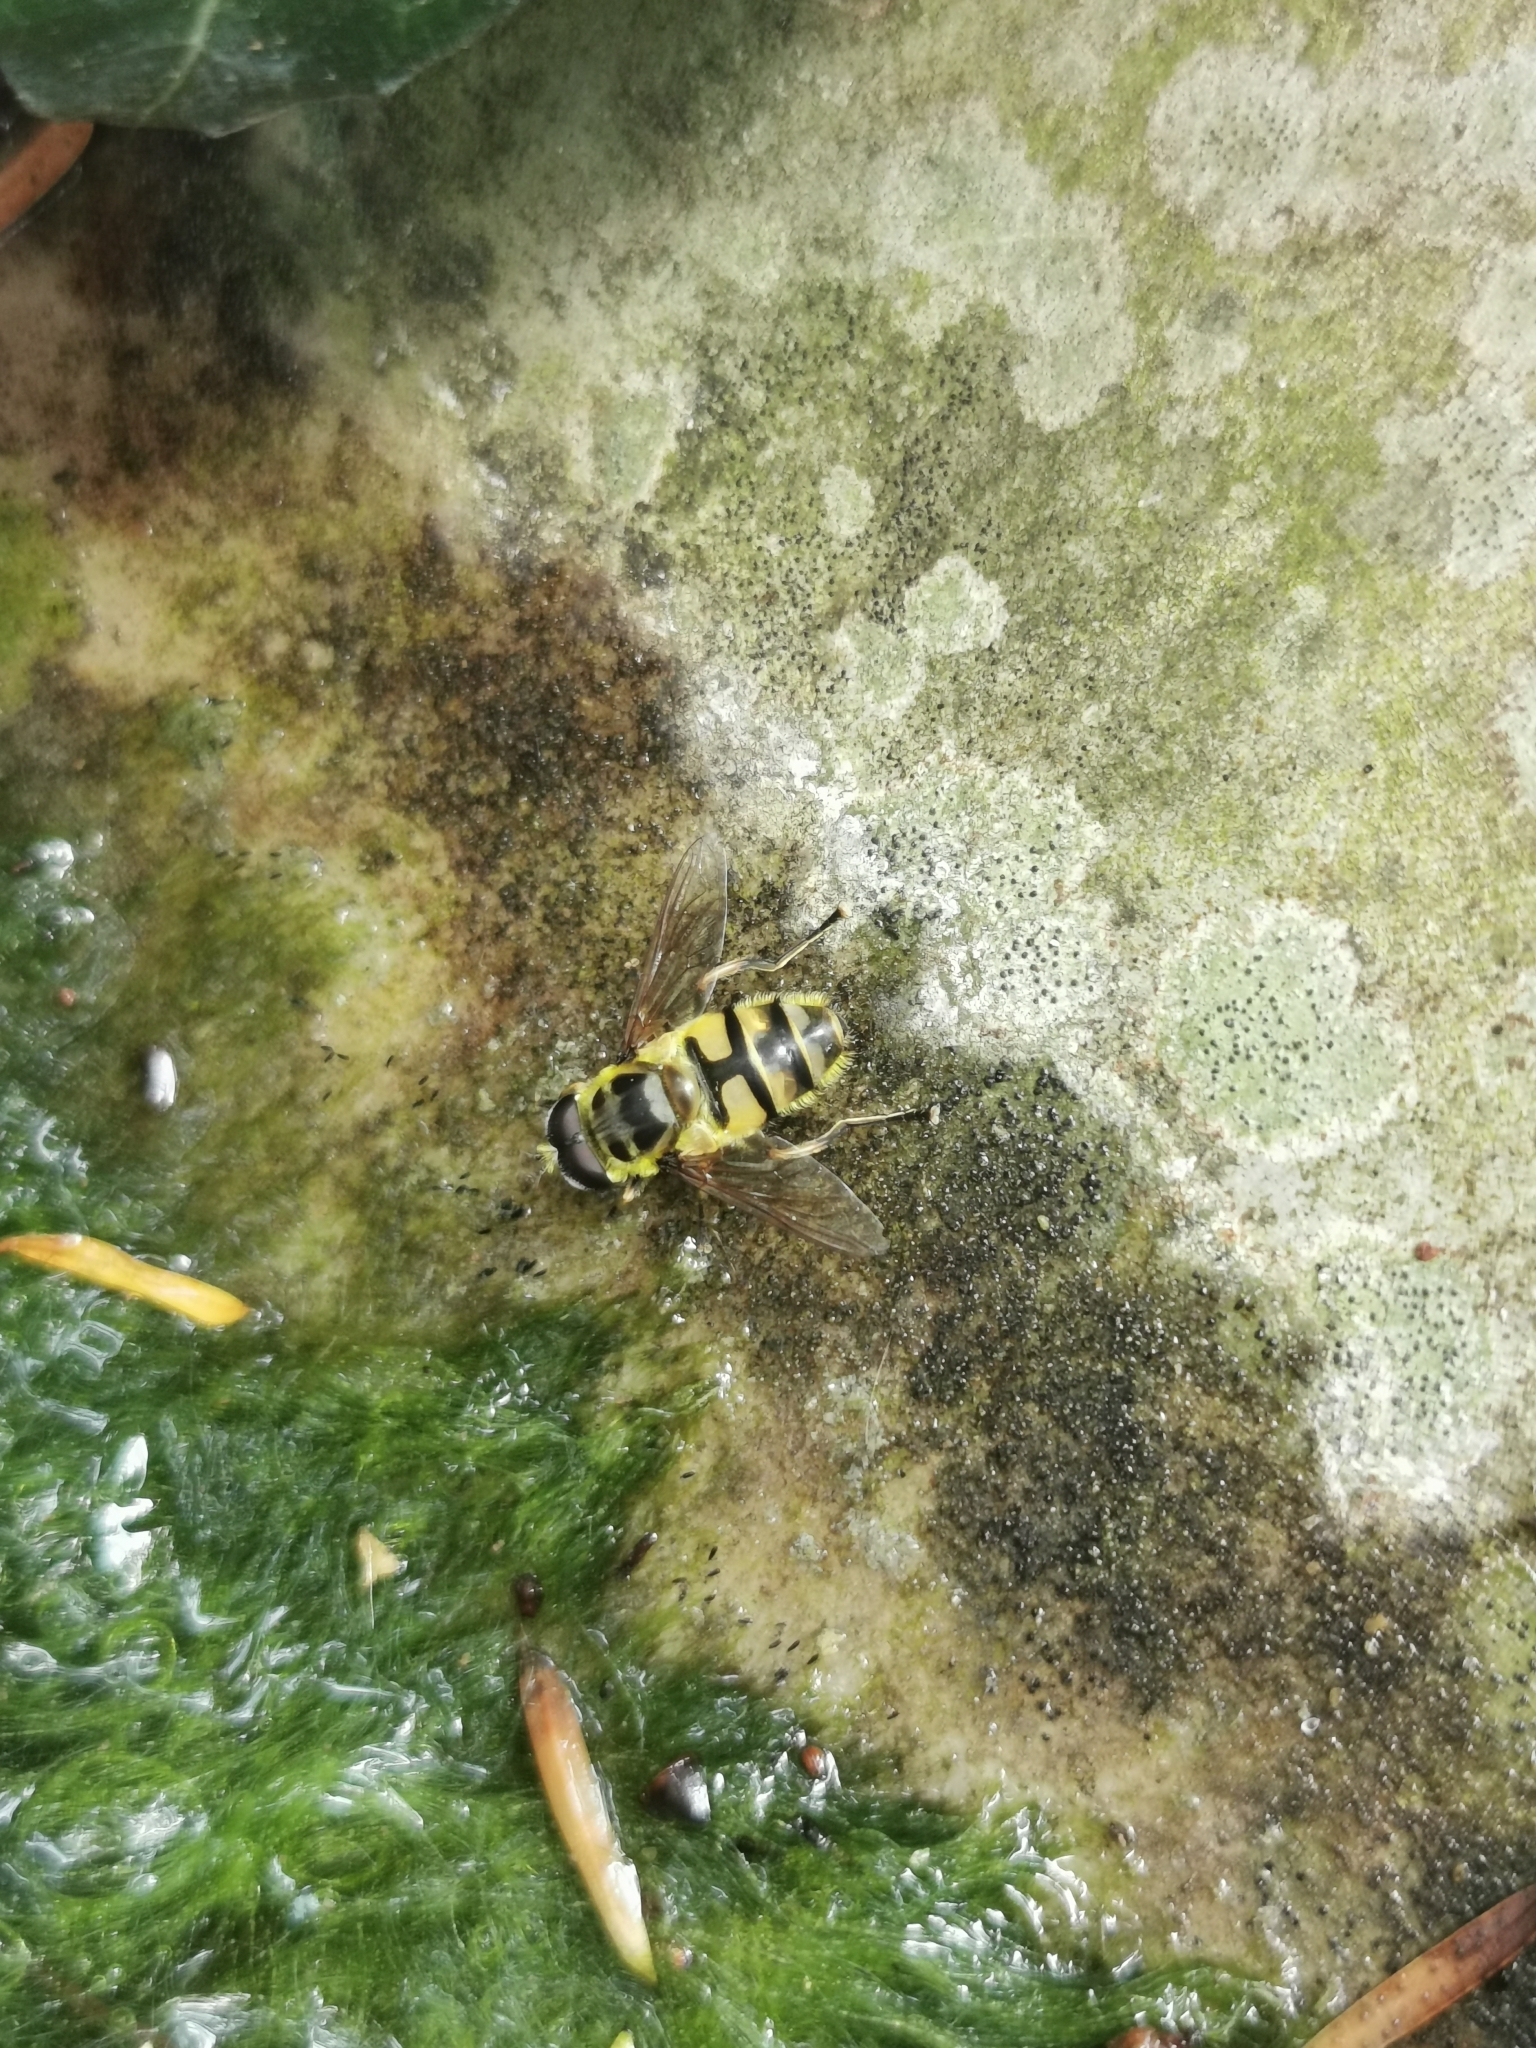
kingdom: Animalia
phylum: Arthropoda
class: Insecta
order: Diptera
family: Syrphidae
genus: Myathropa
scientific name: Myathropa florea
